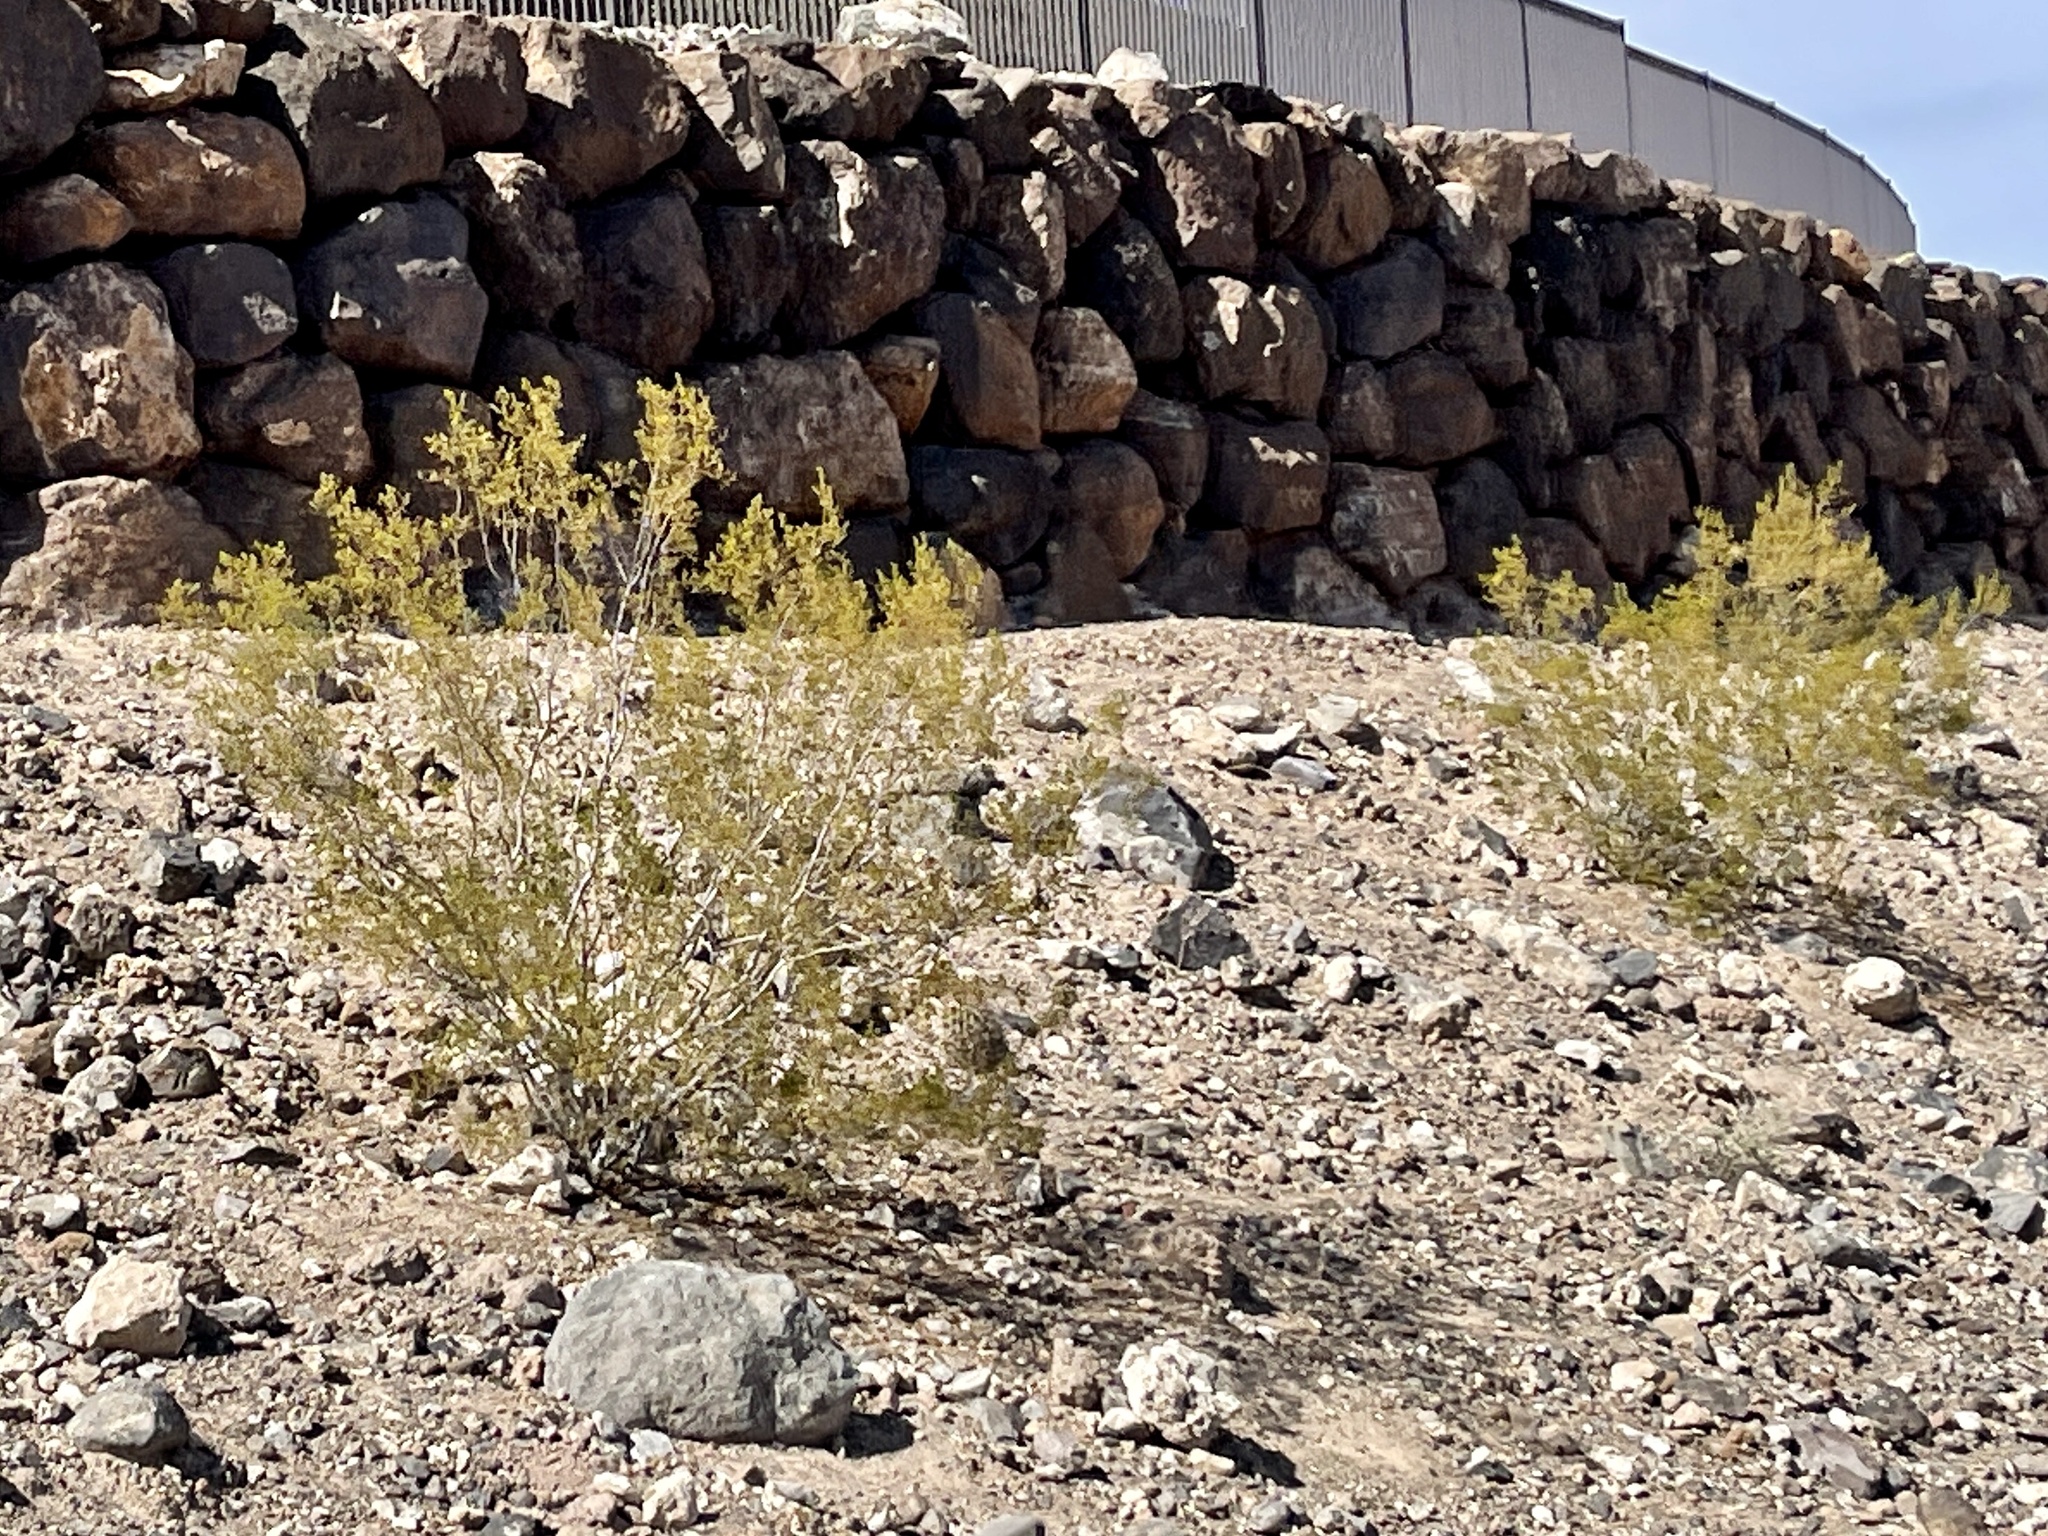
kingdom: Plantae
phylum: Tracheophyta
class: Magnoliopsida
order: Zygophyllales
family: Zygophyllaceae
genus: Larrea
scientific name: Larrea tridentata
